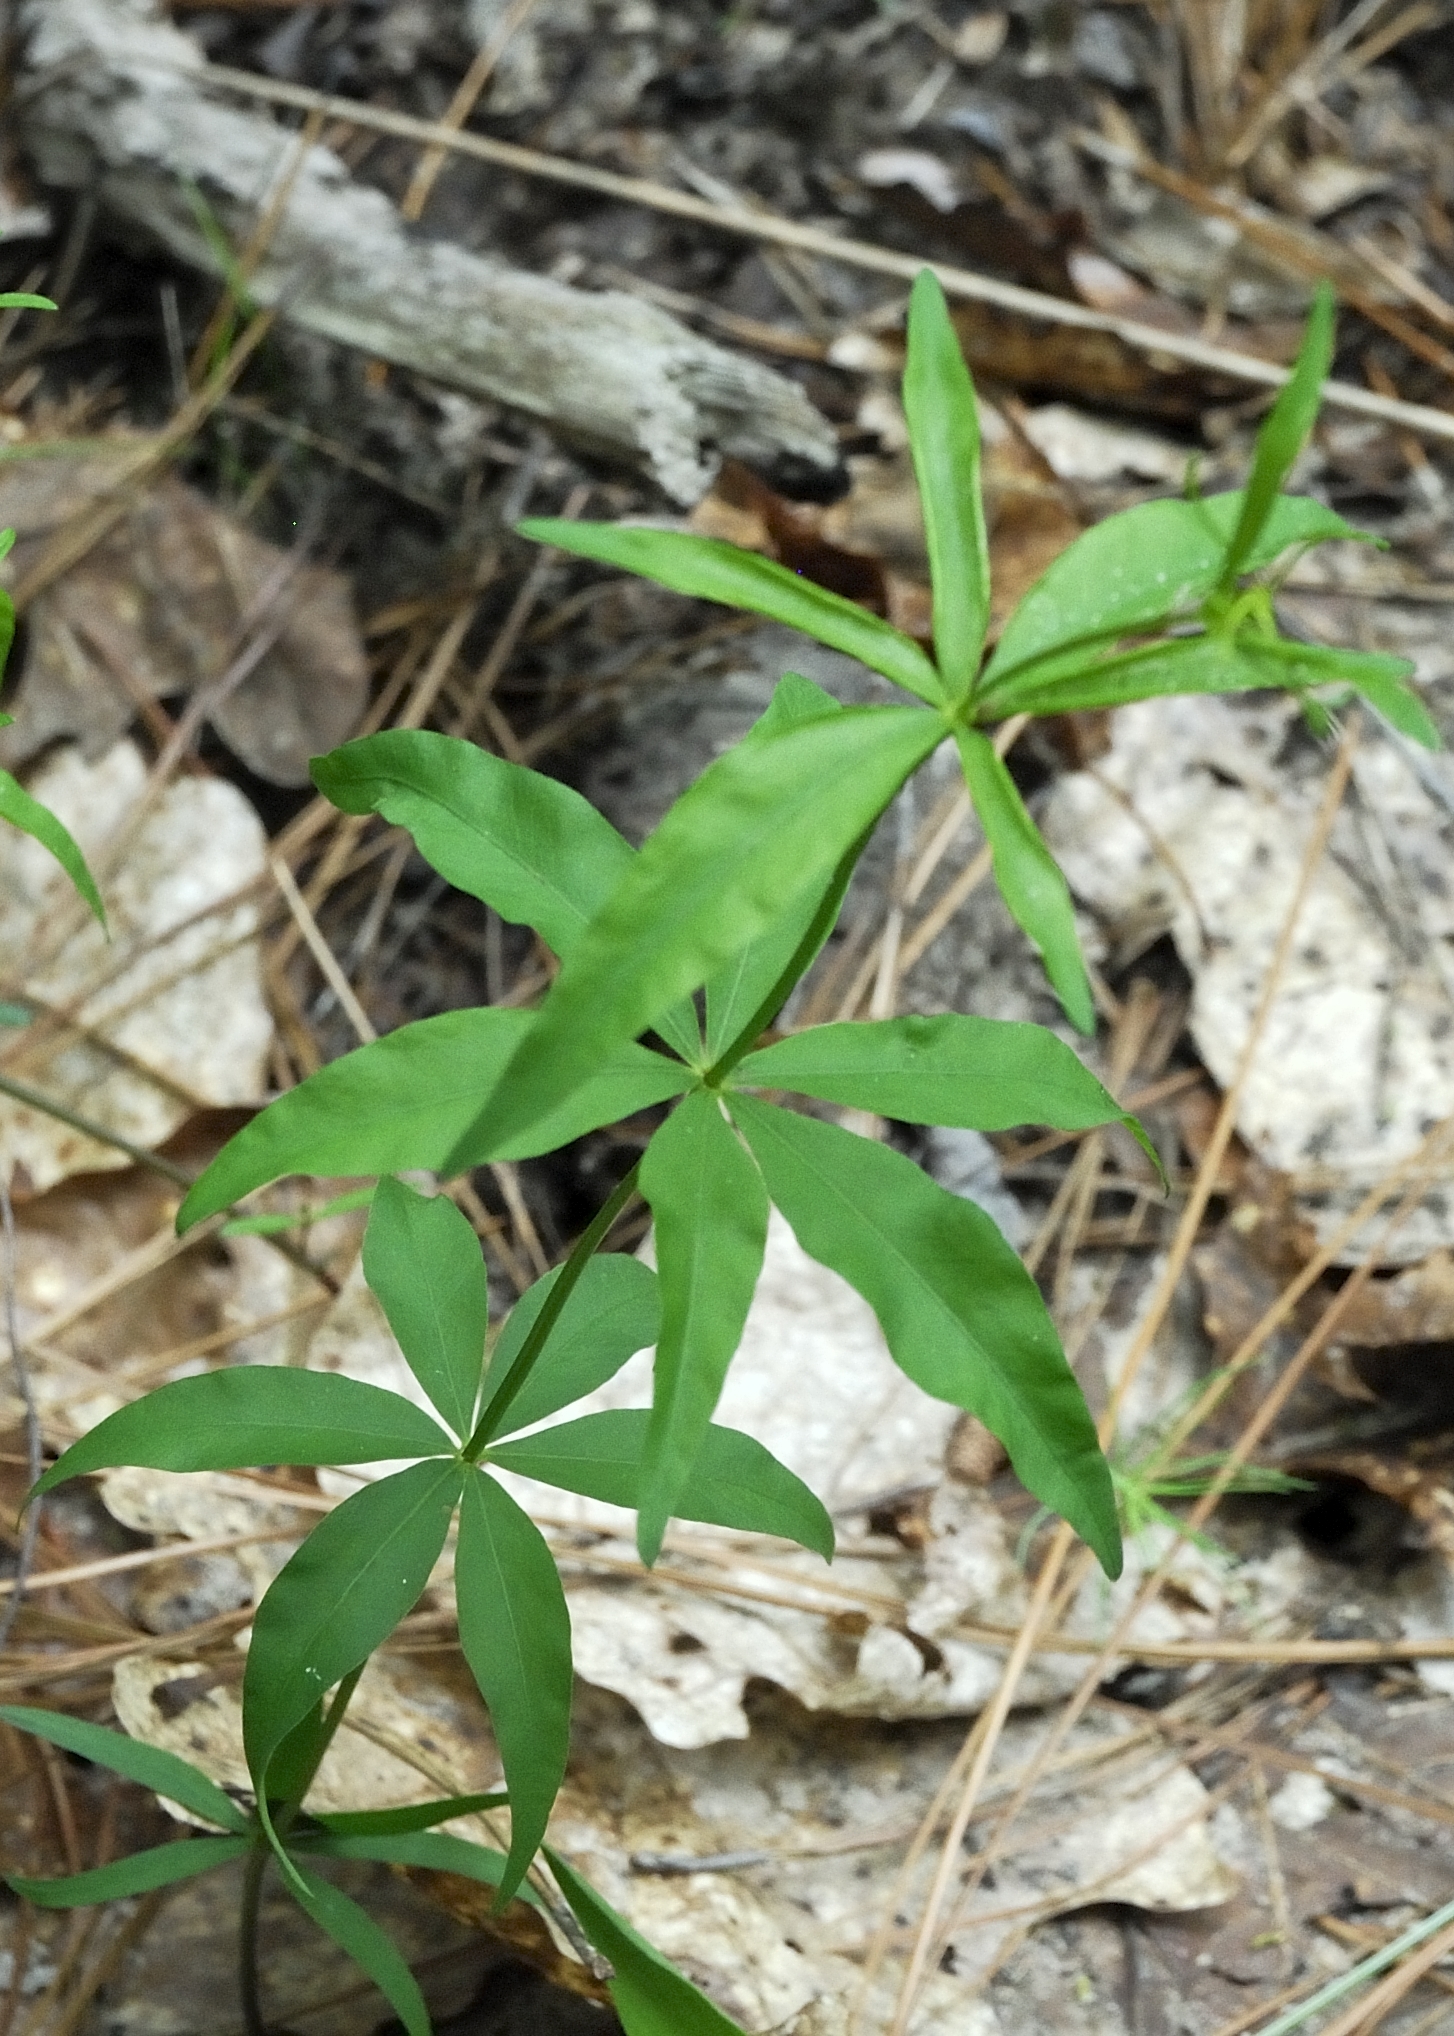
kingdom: Plantae
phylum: Tracheophyta
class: Magnoliopsida
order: Asterales
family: Asteraceae
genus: Coreopsis
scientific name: Coreopsis major
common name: Forest tickseed
